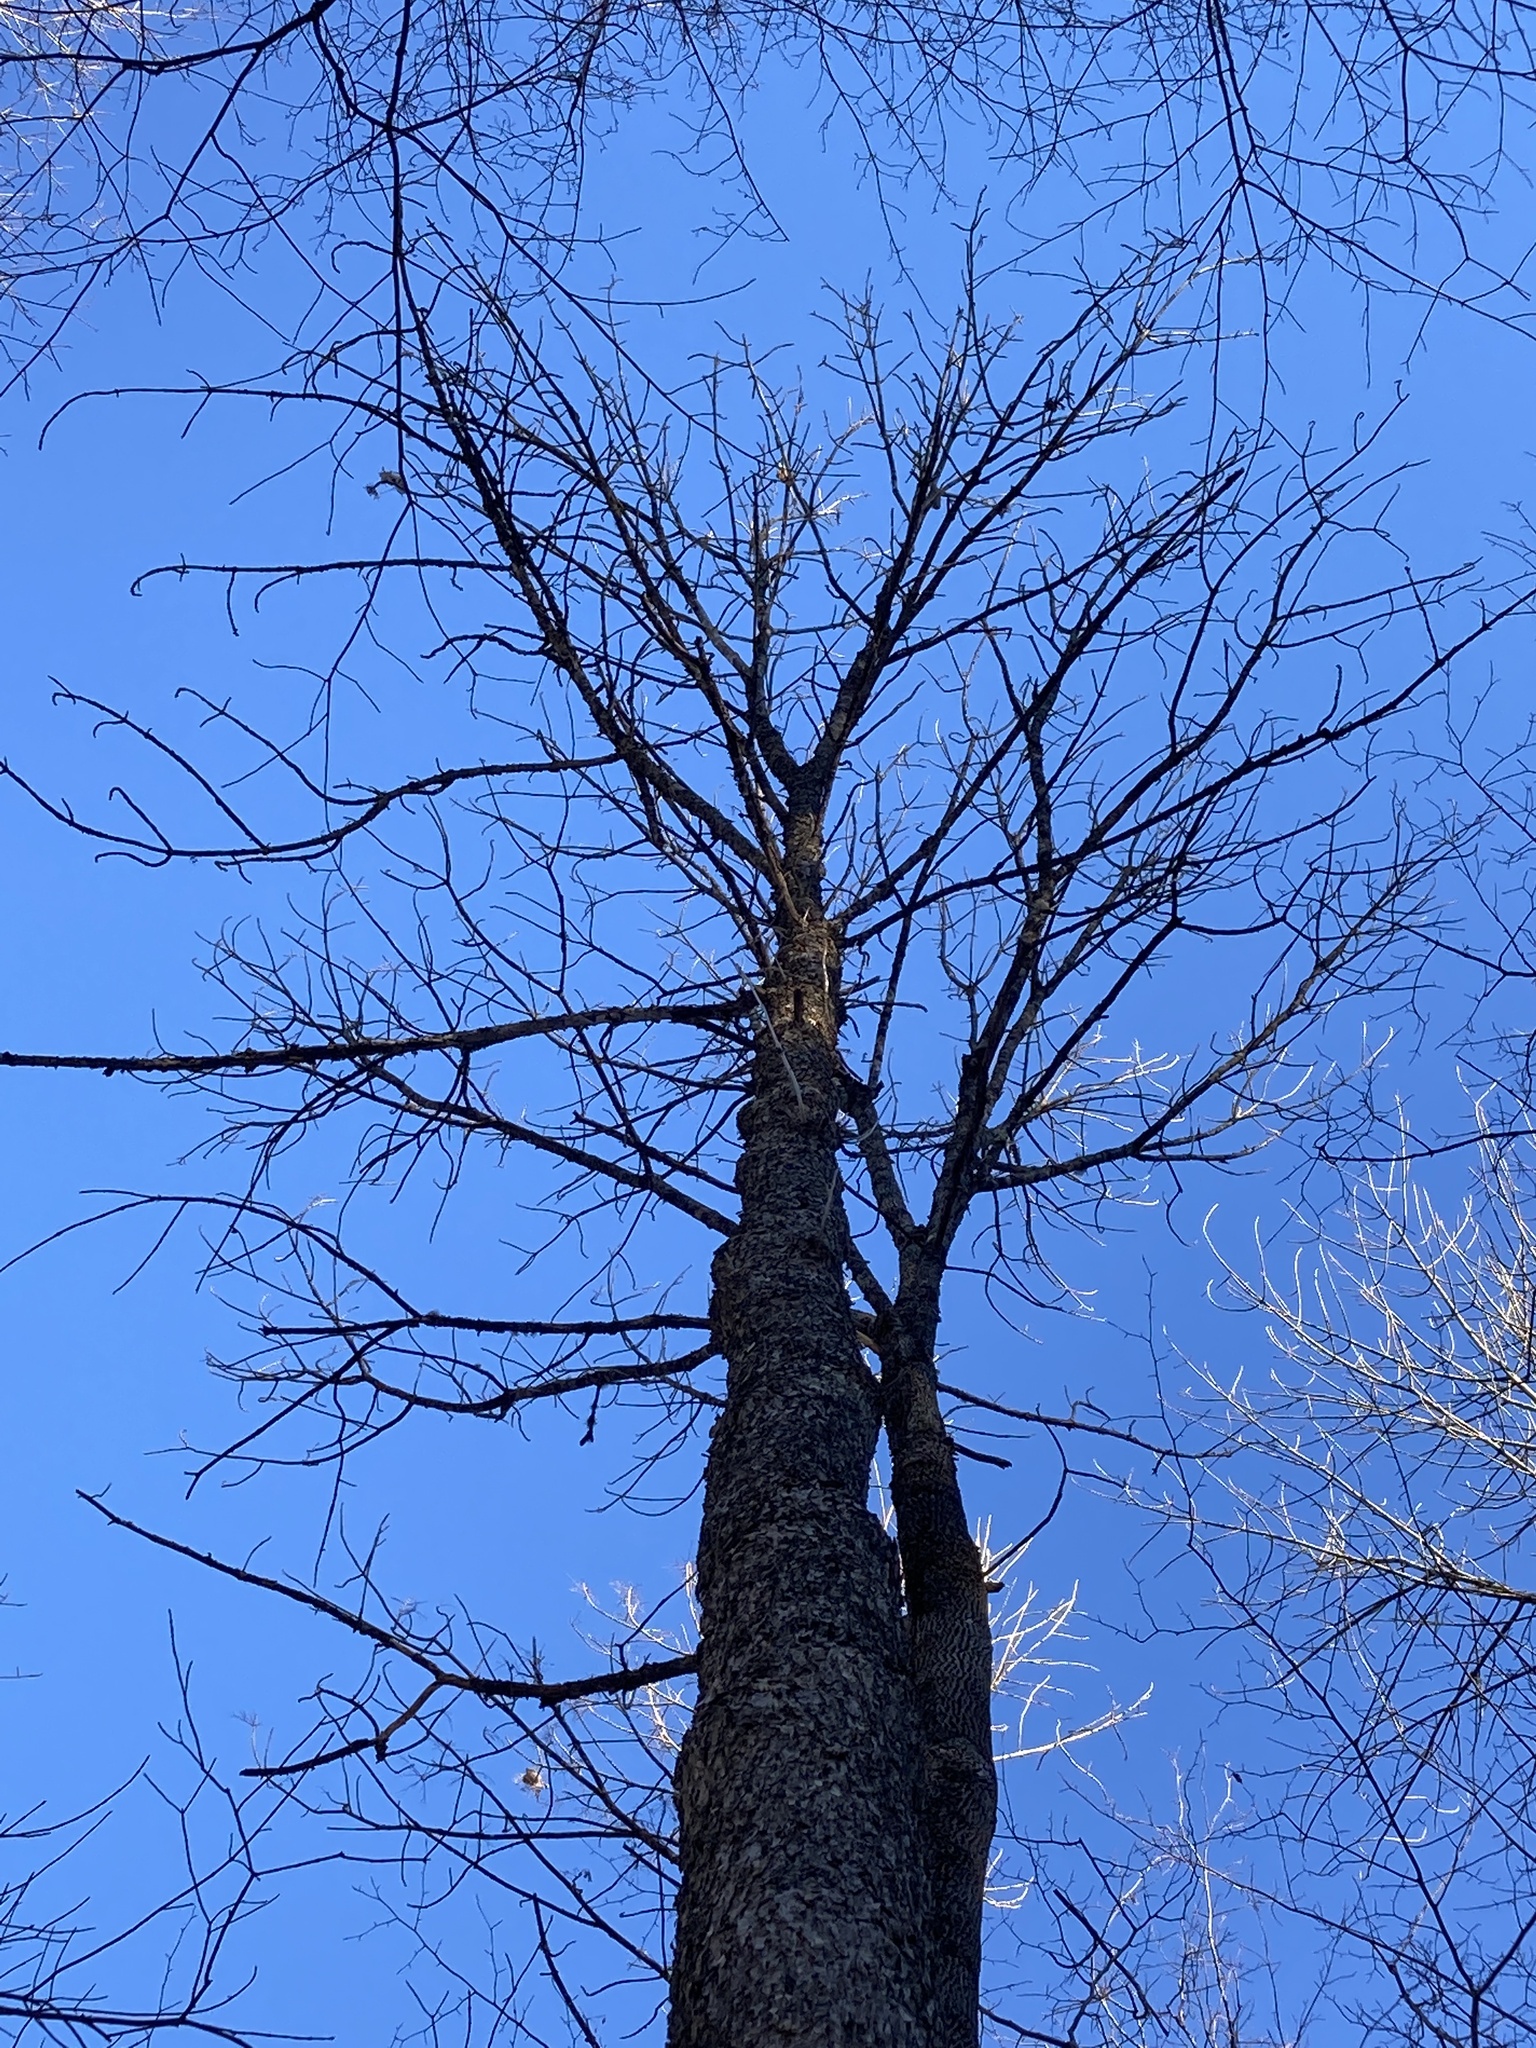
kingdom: Plantae
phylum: Tracheophyta
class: Magnoliopsida
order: Lamiales
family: Oleaceae
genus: Fraxinus
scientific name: Fraxinus nigra
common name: Black ash
